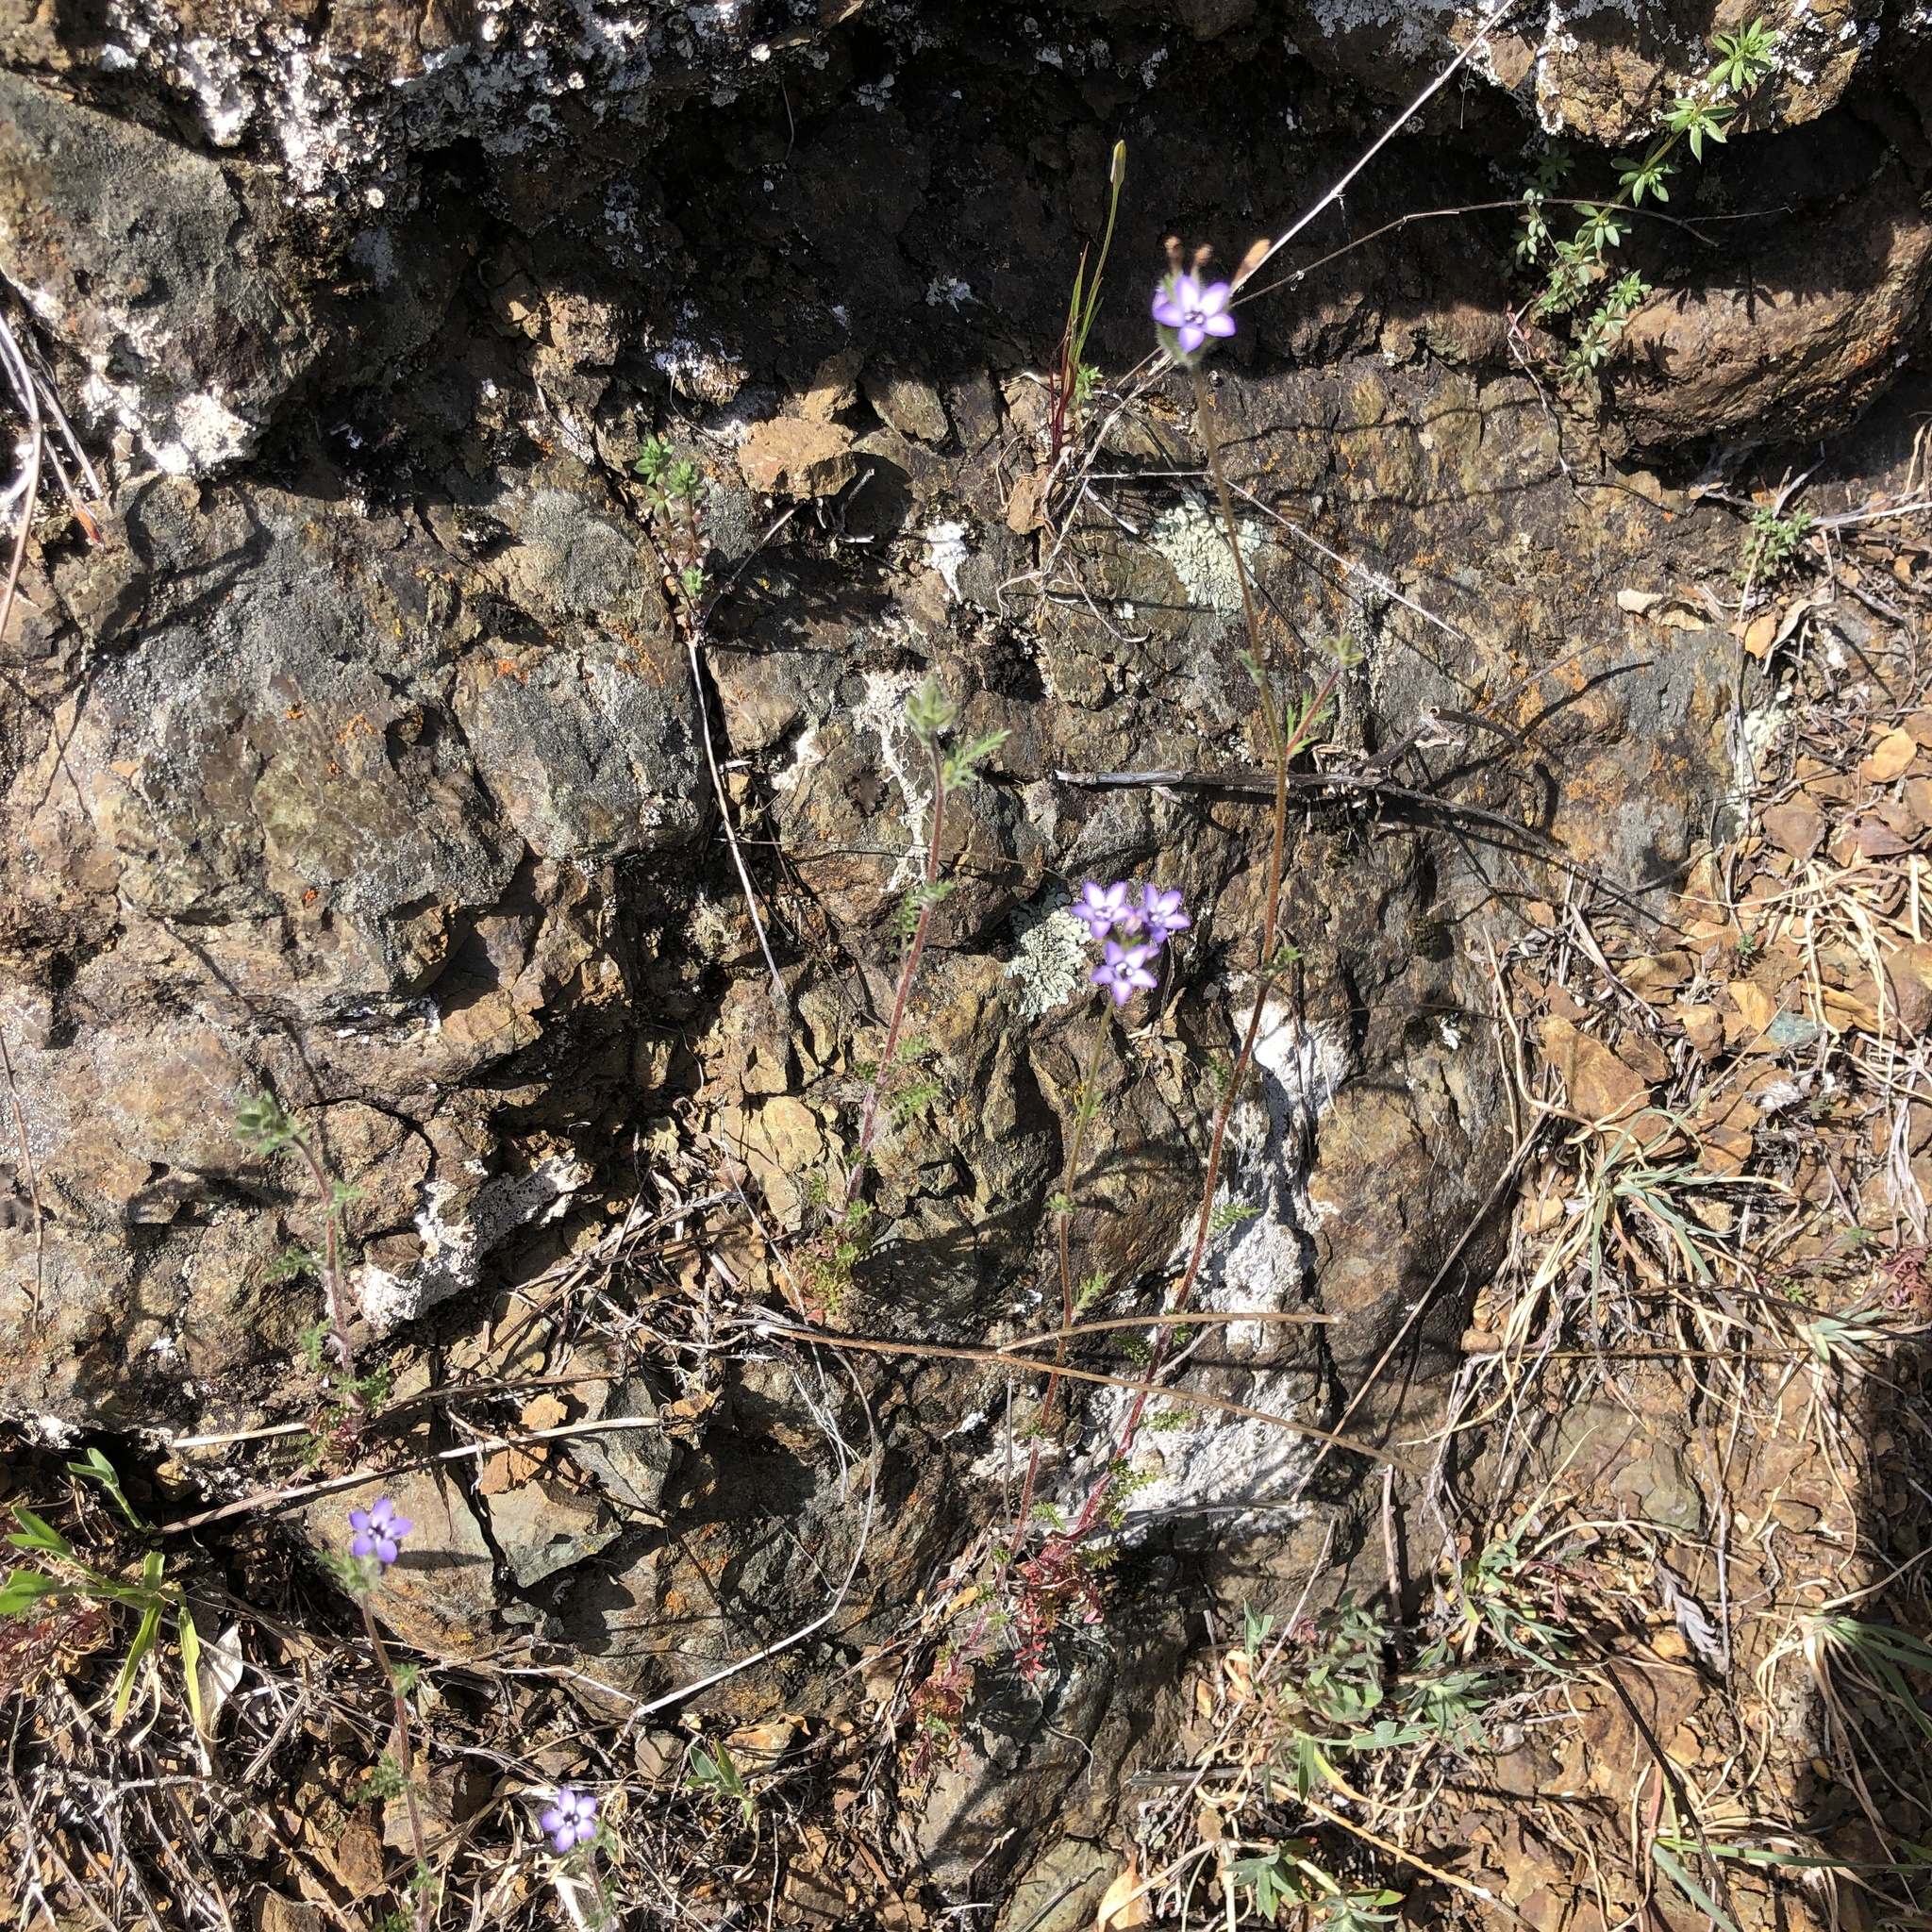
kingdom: Plantae
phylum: Tracheophyta
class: Magnoliopsida
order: Ericales
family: Polemoniaceae
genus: Gilia
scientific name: Gilia clivorum
